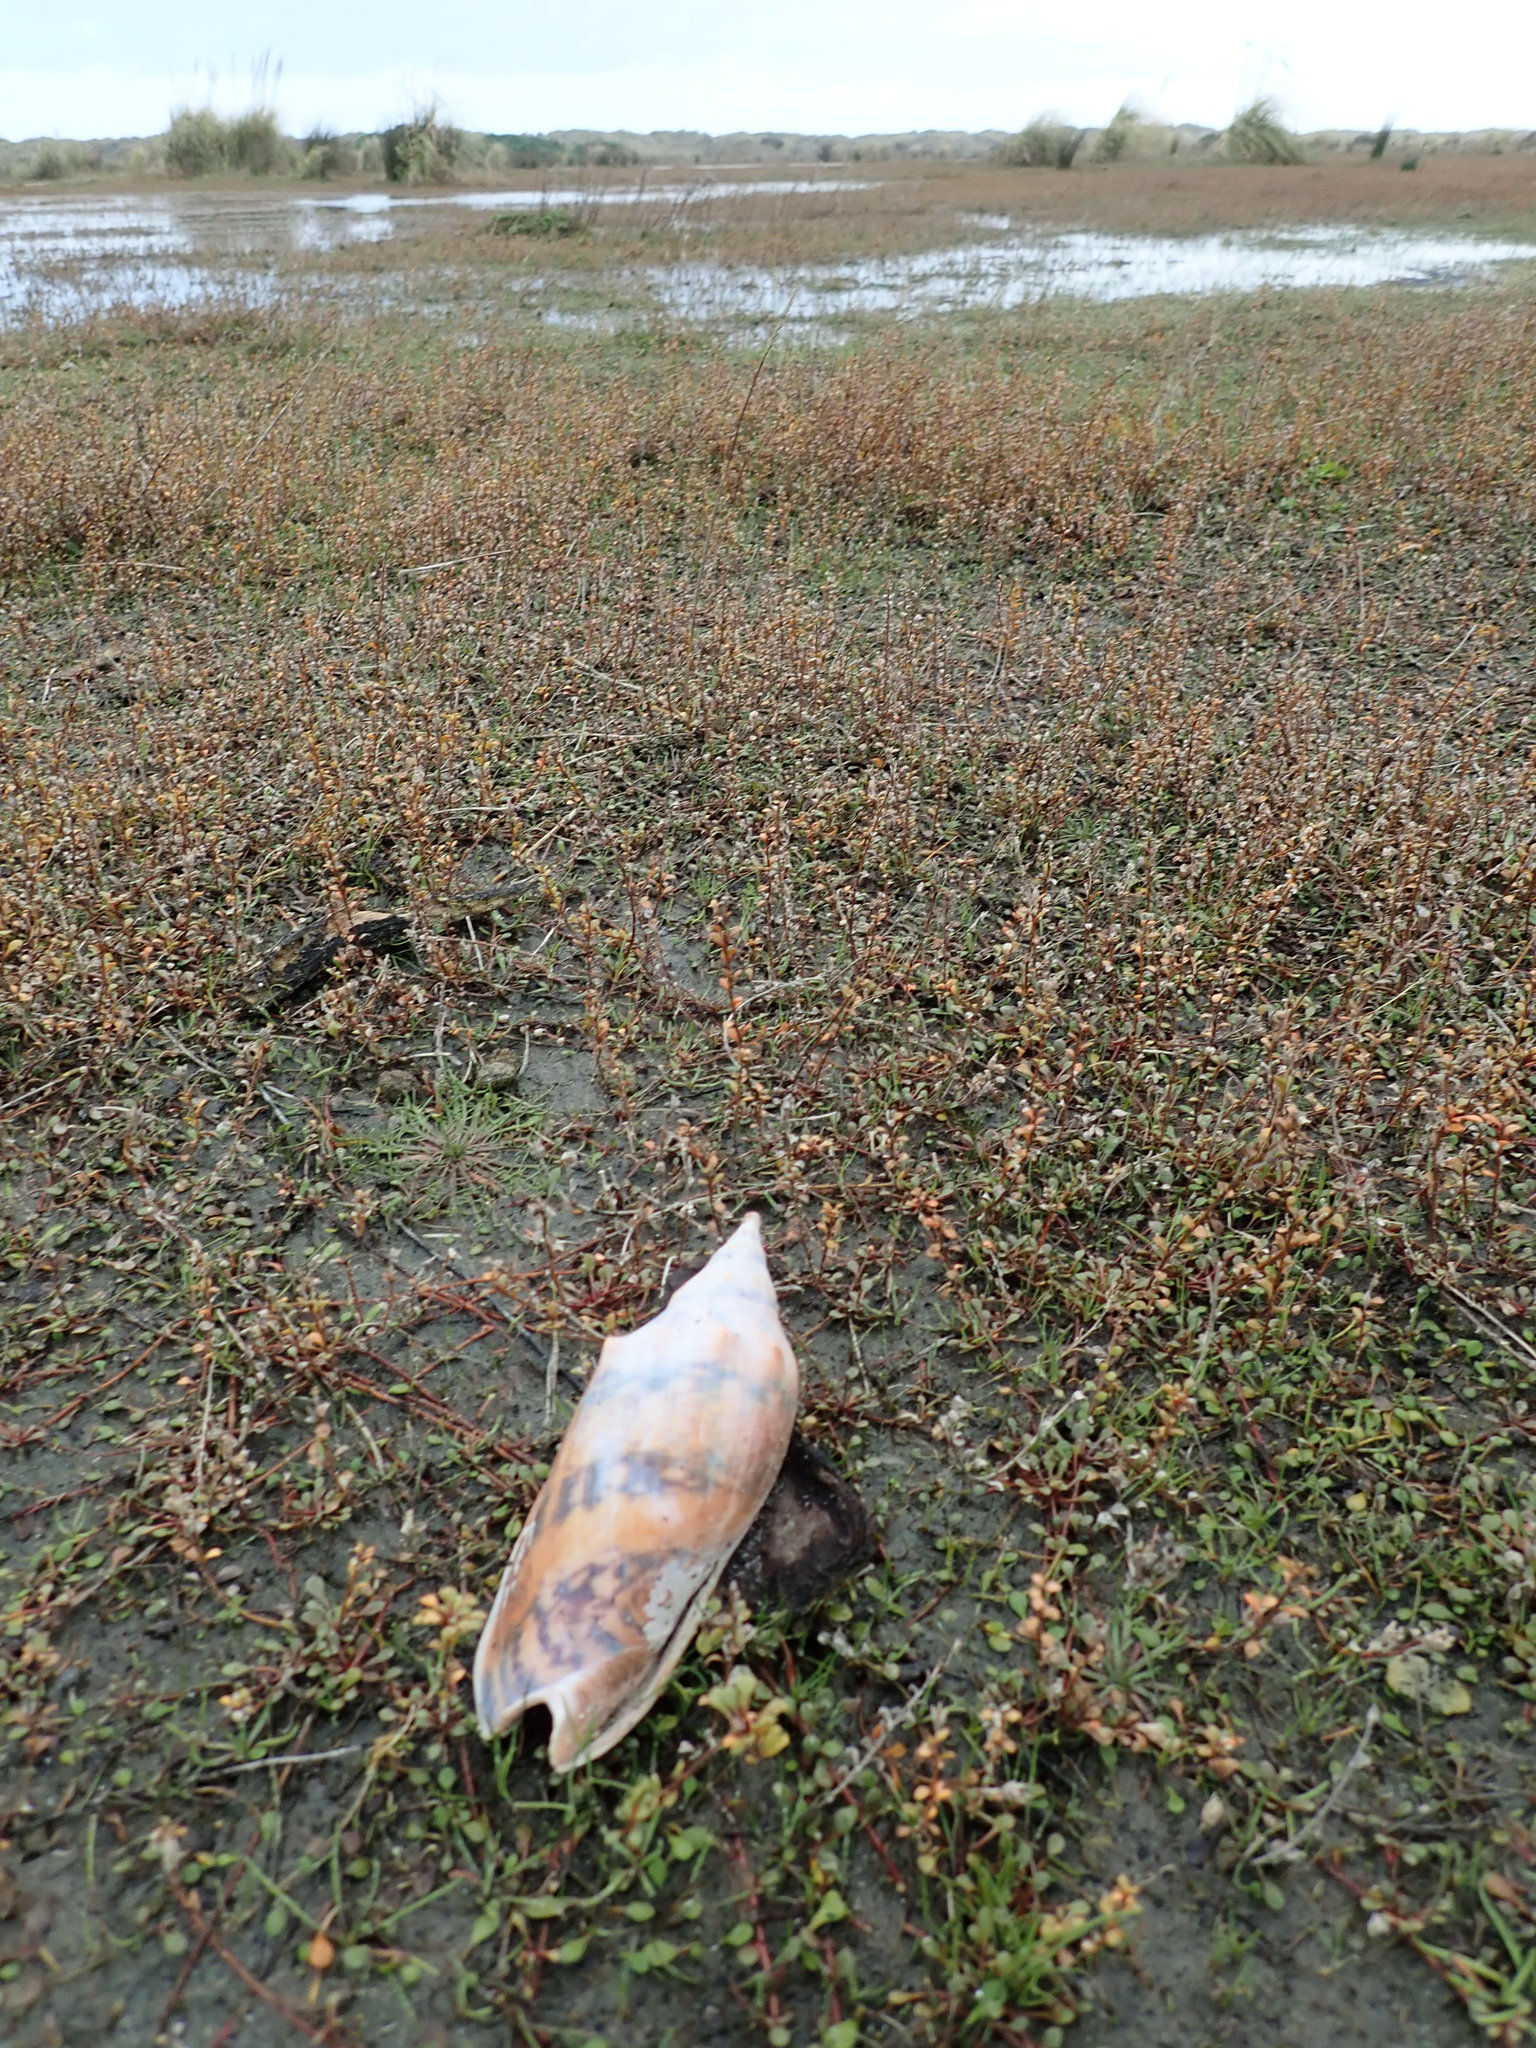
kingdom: Animalia
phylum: Mollusca
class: Gastropoda
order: Neogastropoda
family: Volutidae
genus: Alcithoe
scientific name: Alcithoe arabica
